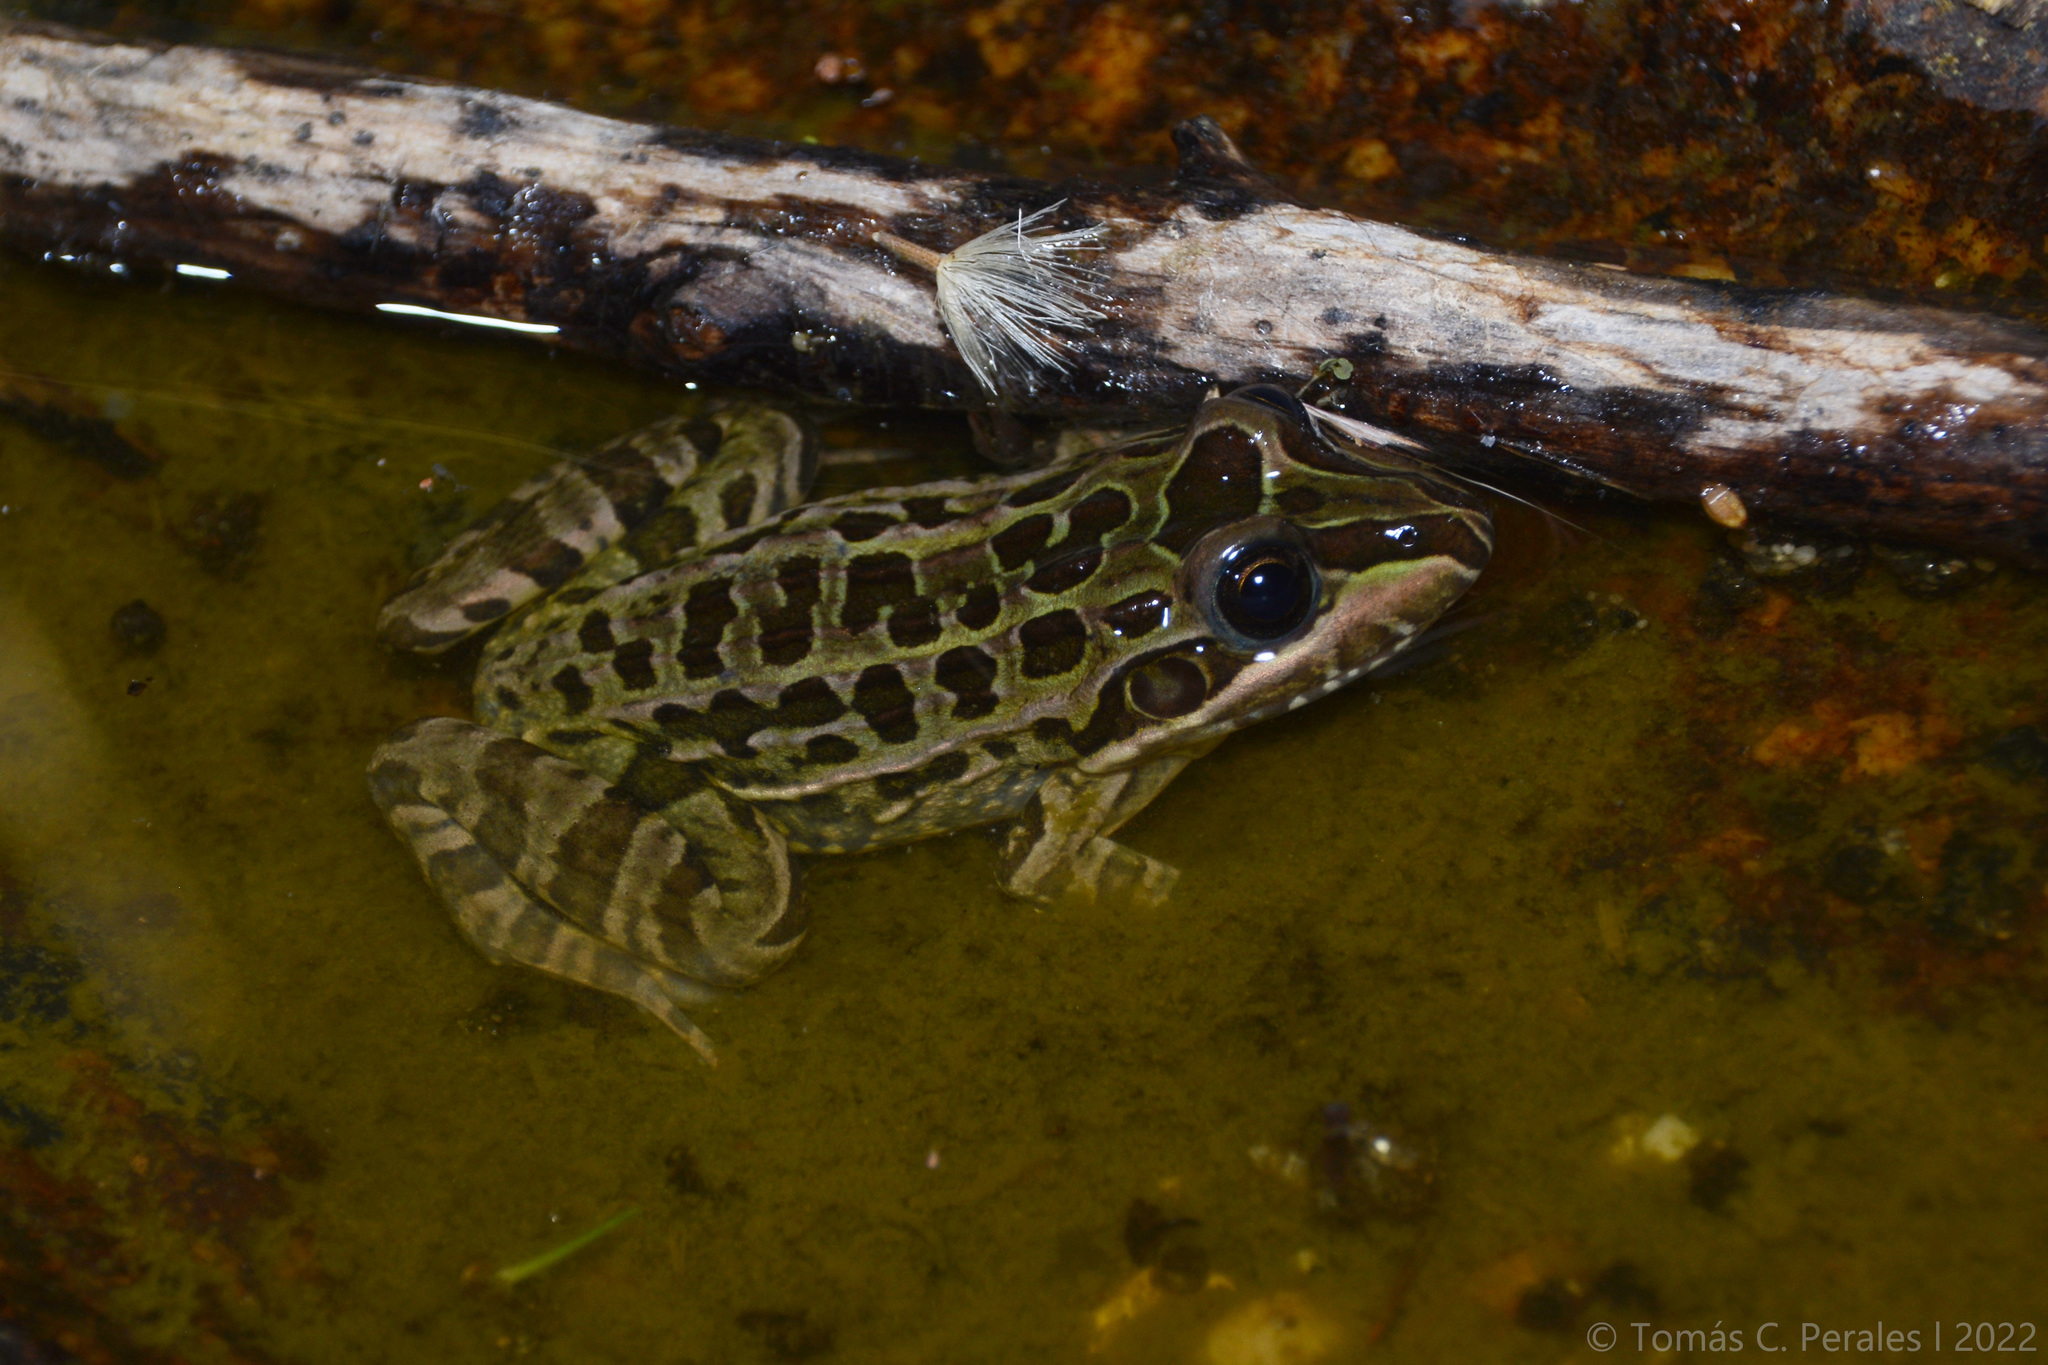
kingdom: Animalia
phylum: Chordata
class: Amphibia
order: Anura
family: Leptodactylidae
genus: Leptodactylus
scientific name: Leptodactylus luctator
